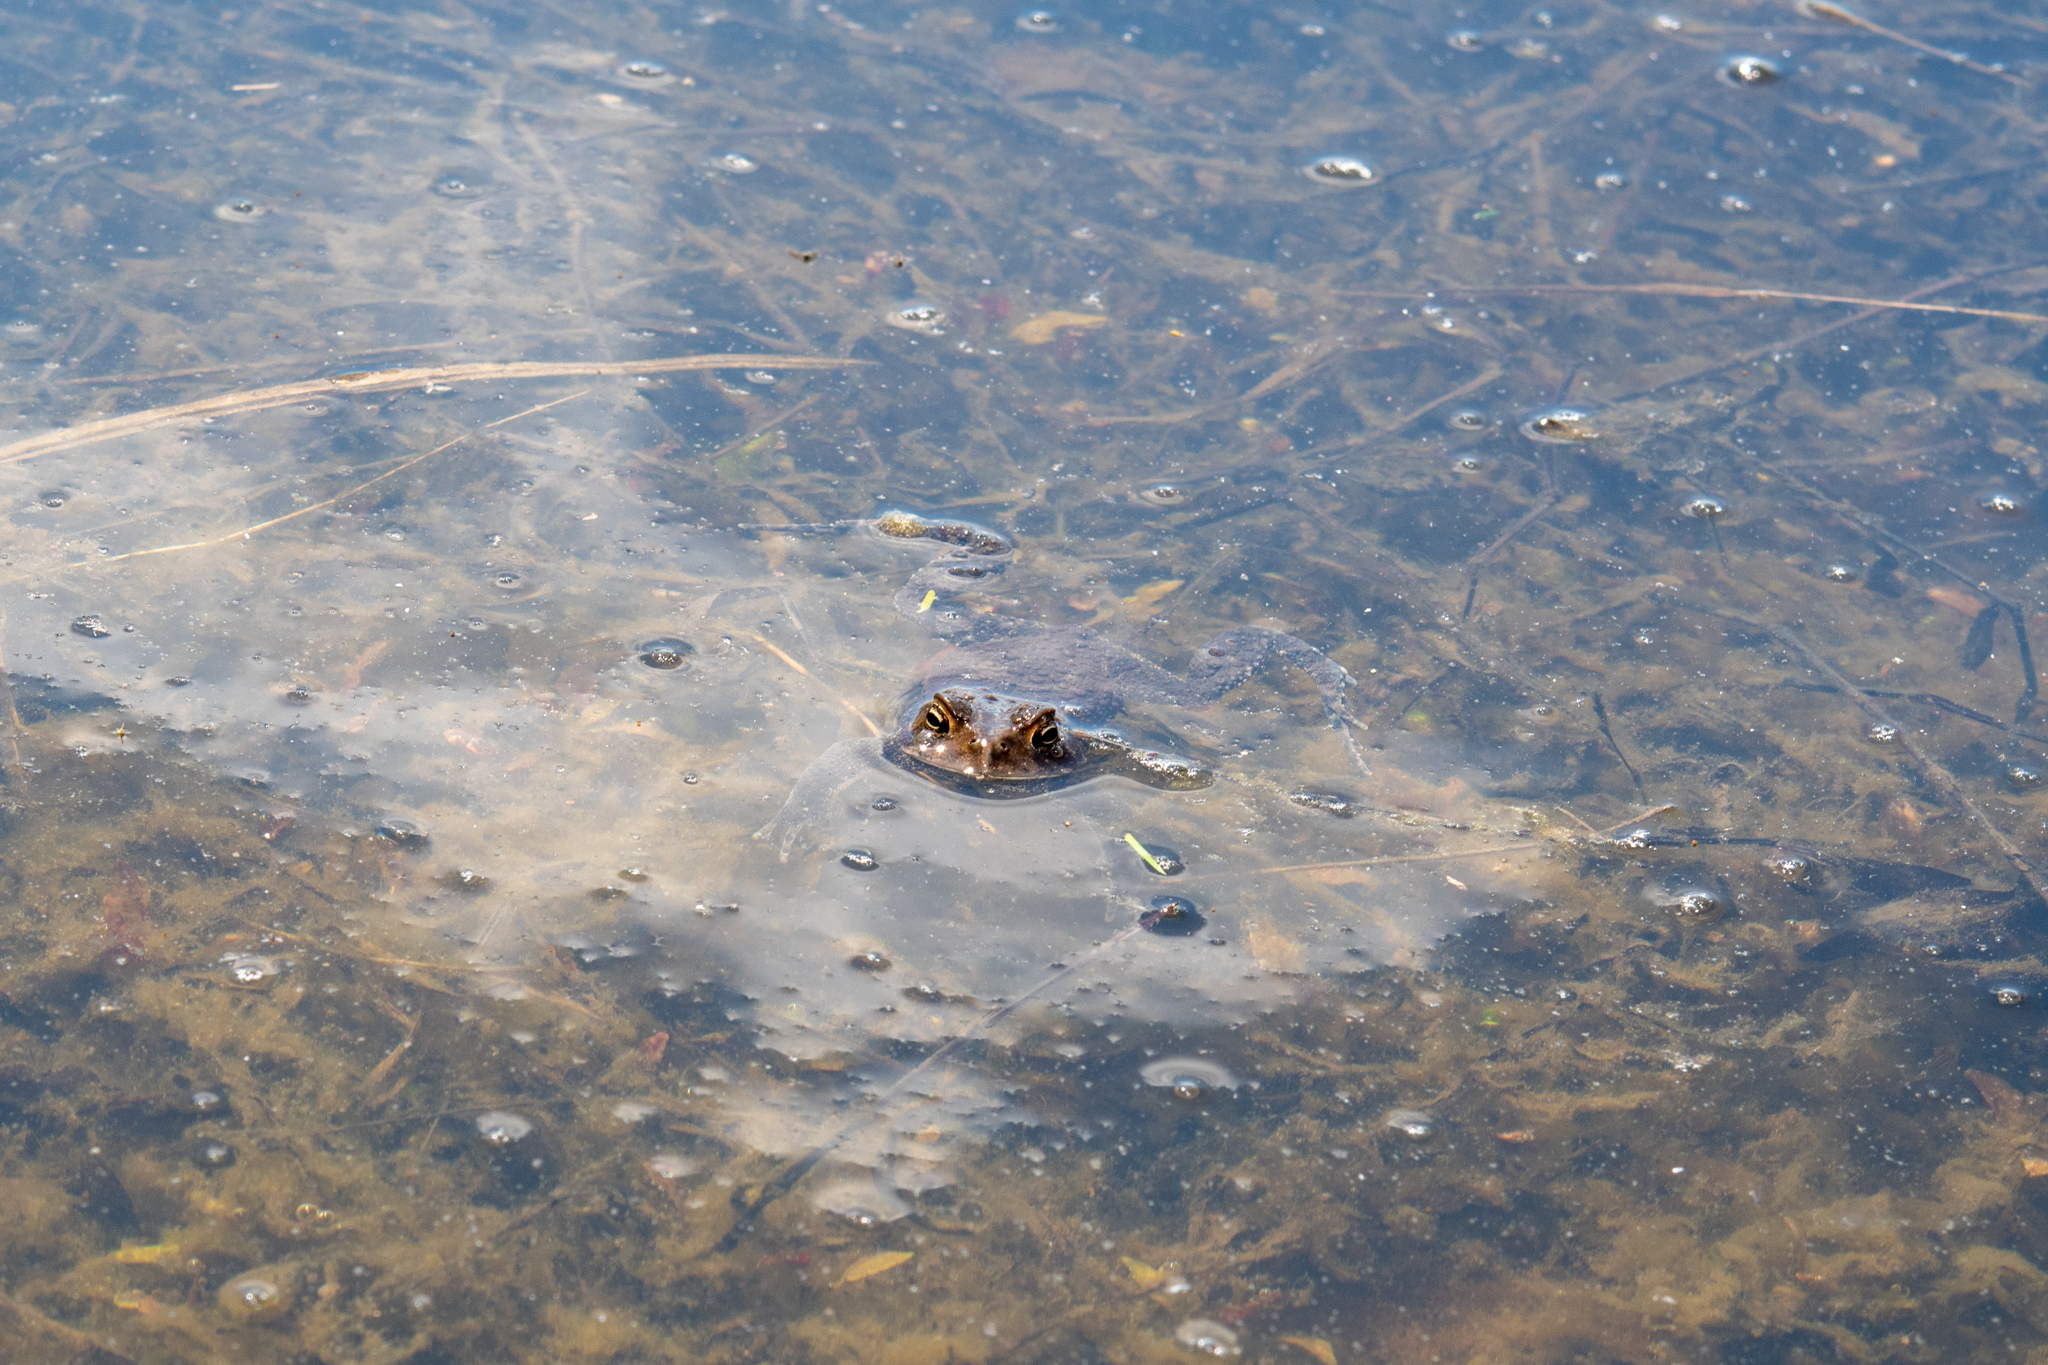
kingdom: Animalia
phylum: Chordata
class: Amphibia
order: Anura
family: Bufonidae
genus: Anaxyrus
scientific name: Anaxyrus americanus
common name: American toad
